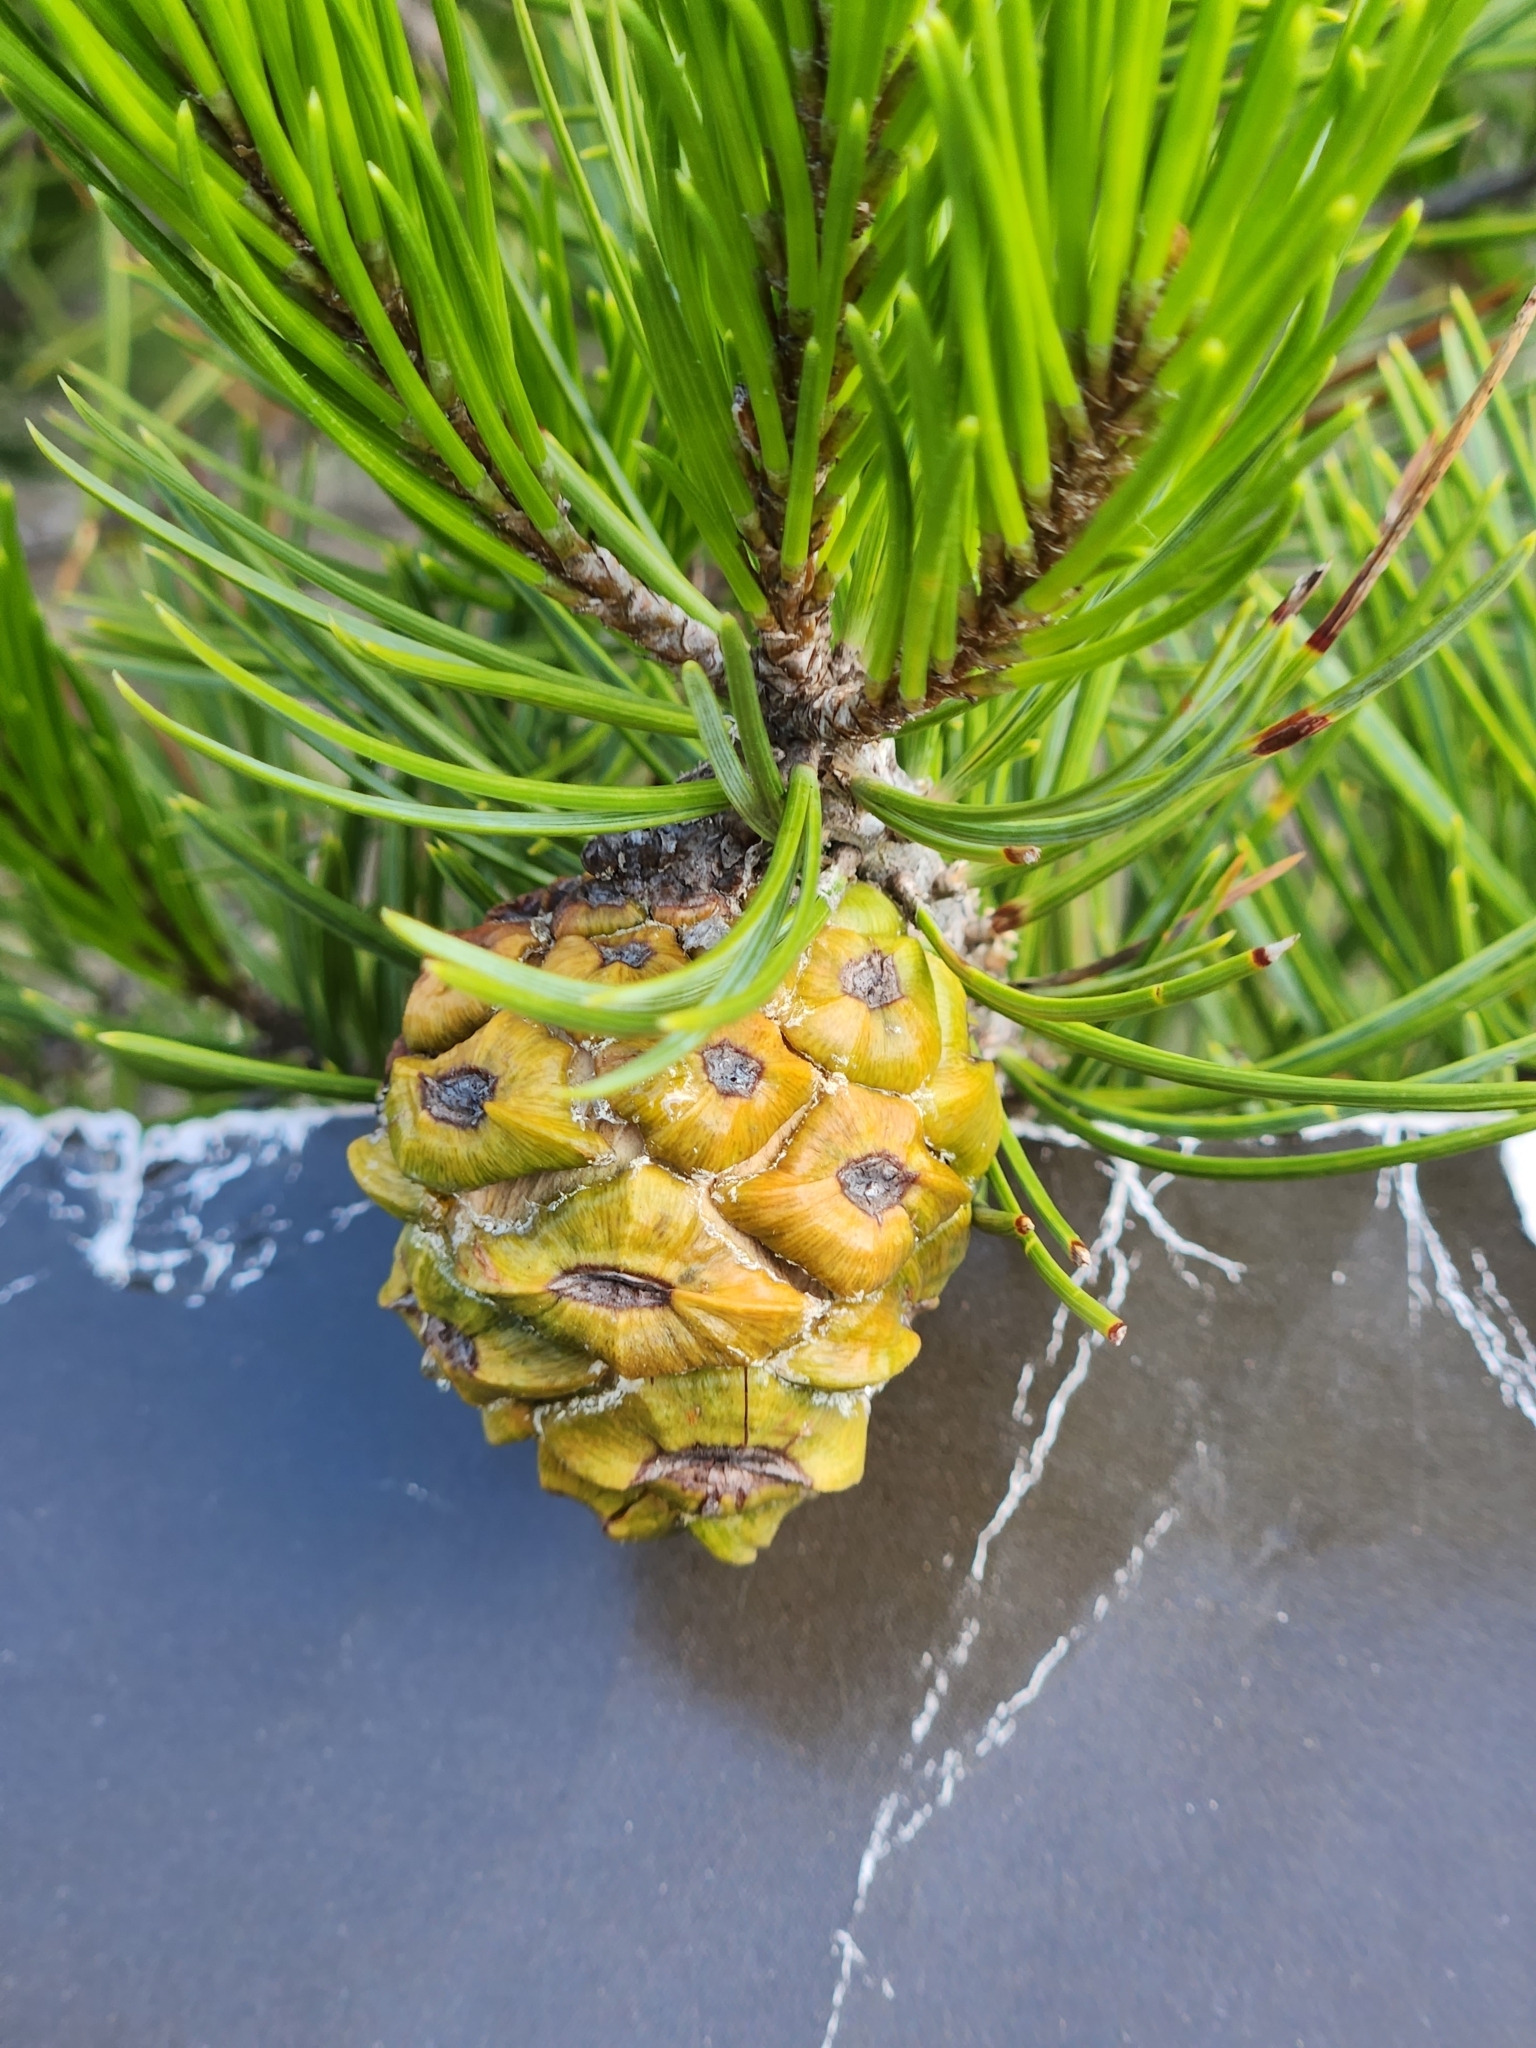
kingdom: Plantae
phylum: Tracheophyta
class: Pinopsida
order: Pinales
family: Pinaceae
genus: Pinus
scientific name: Pinus remota
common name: Nut pine
